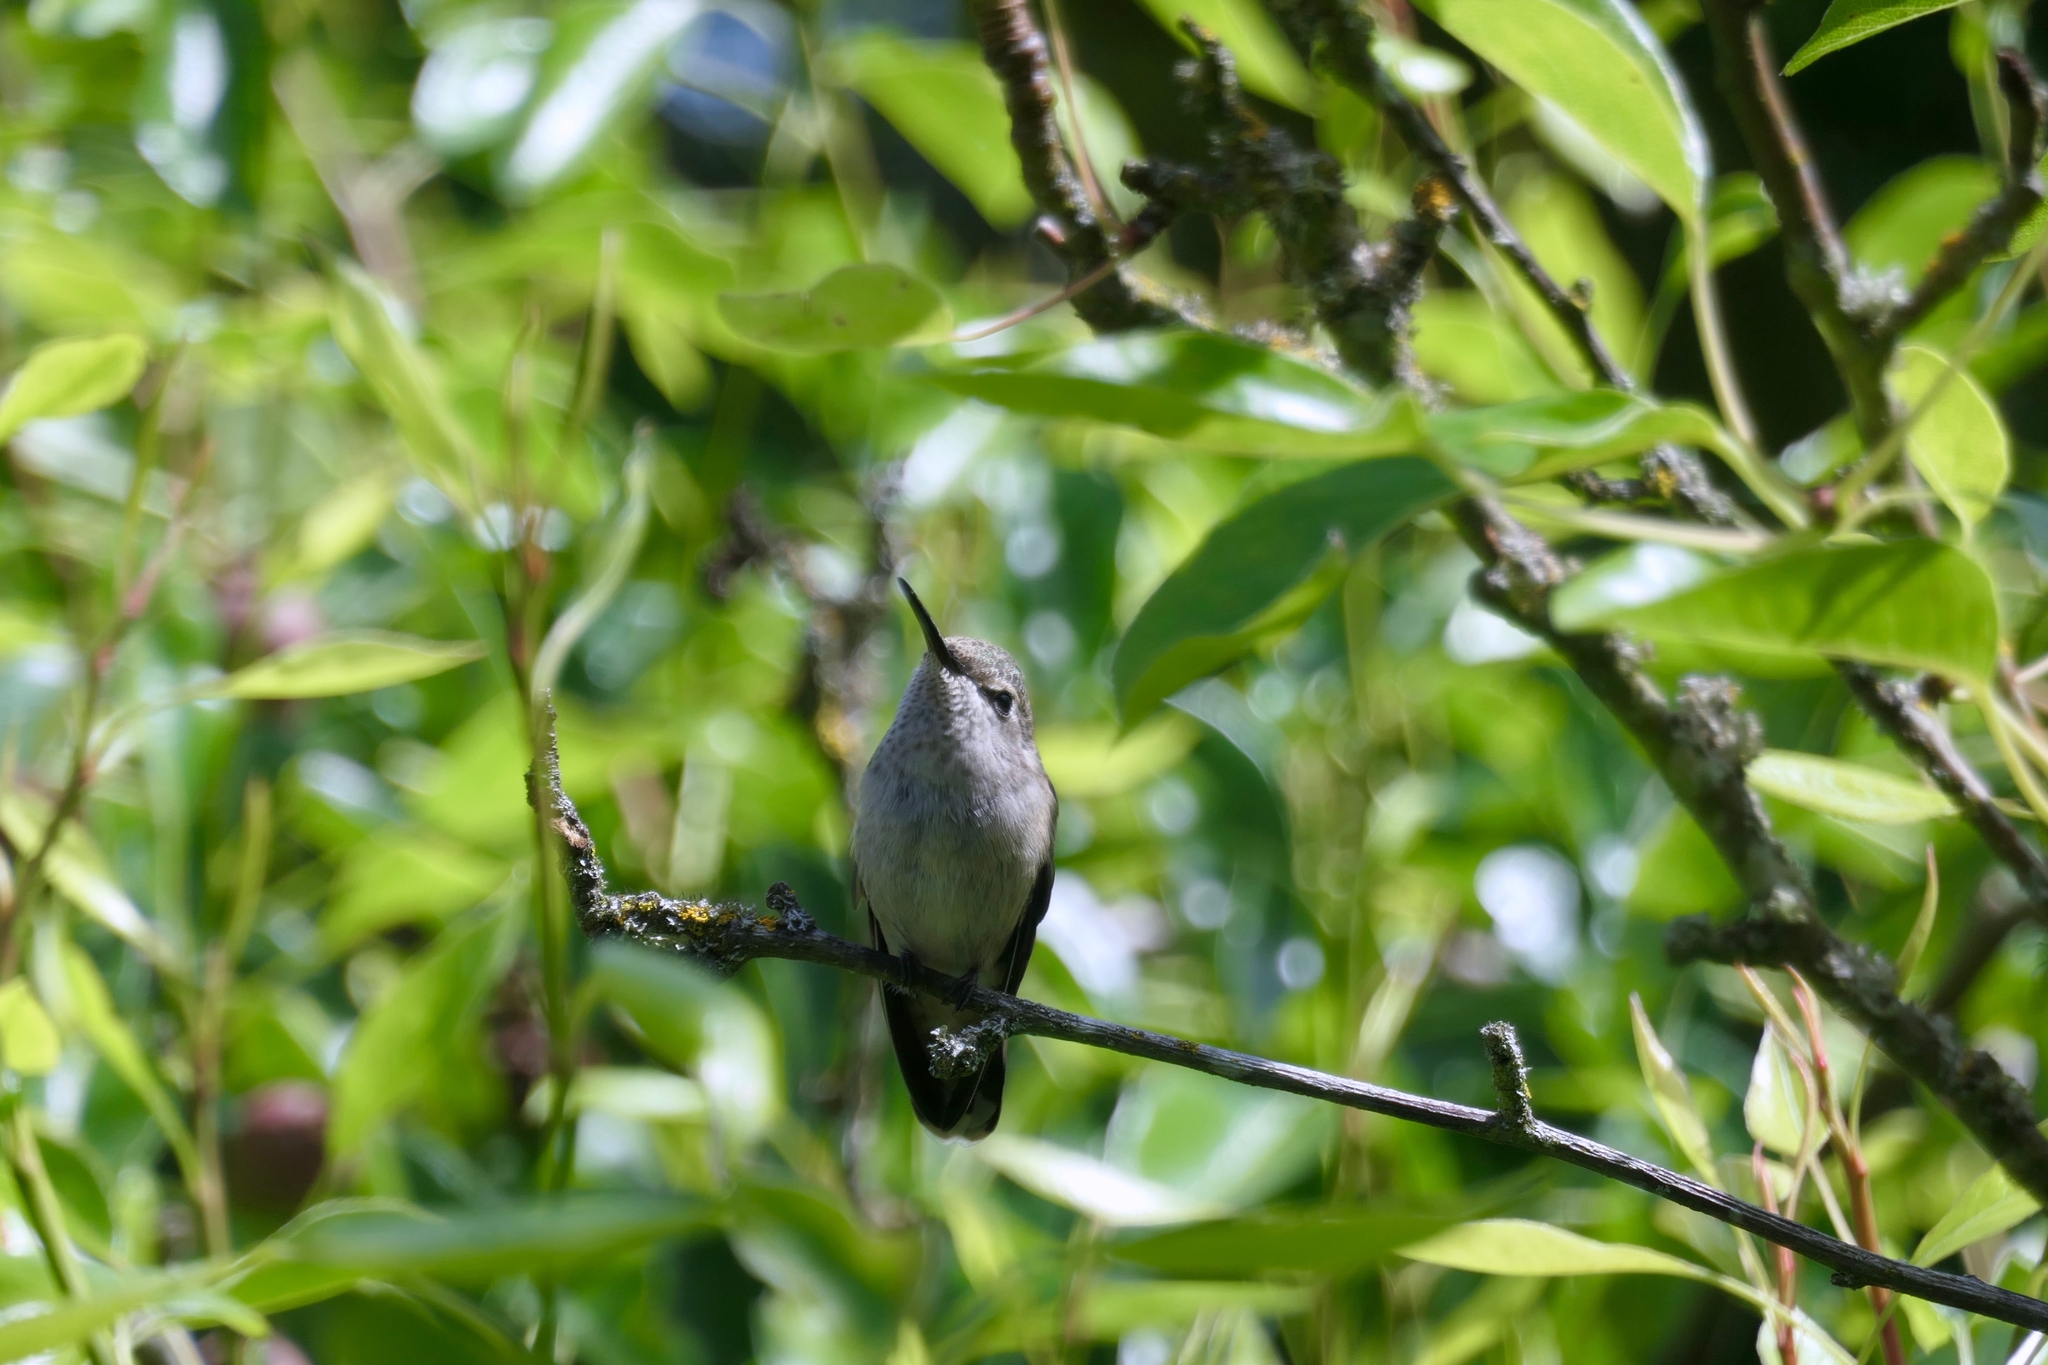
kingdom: Animalia
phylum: Chordata
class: Aves
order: Apodiformes
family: Trochilidae
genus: Calypte
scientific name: Calypte anna
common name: Anna's hummingbird
